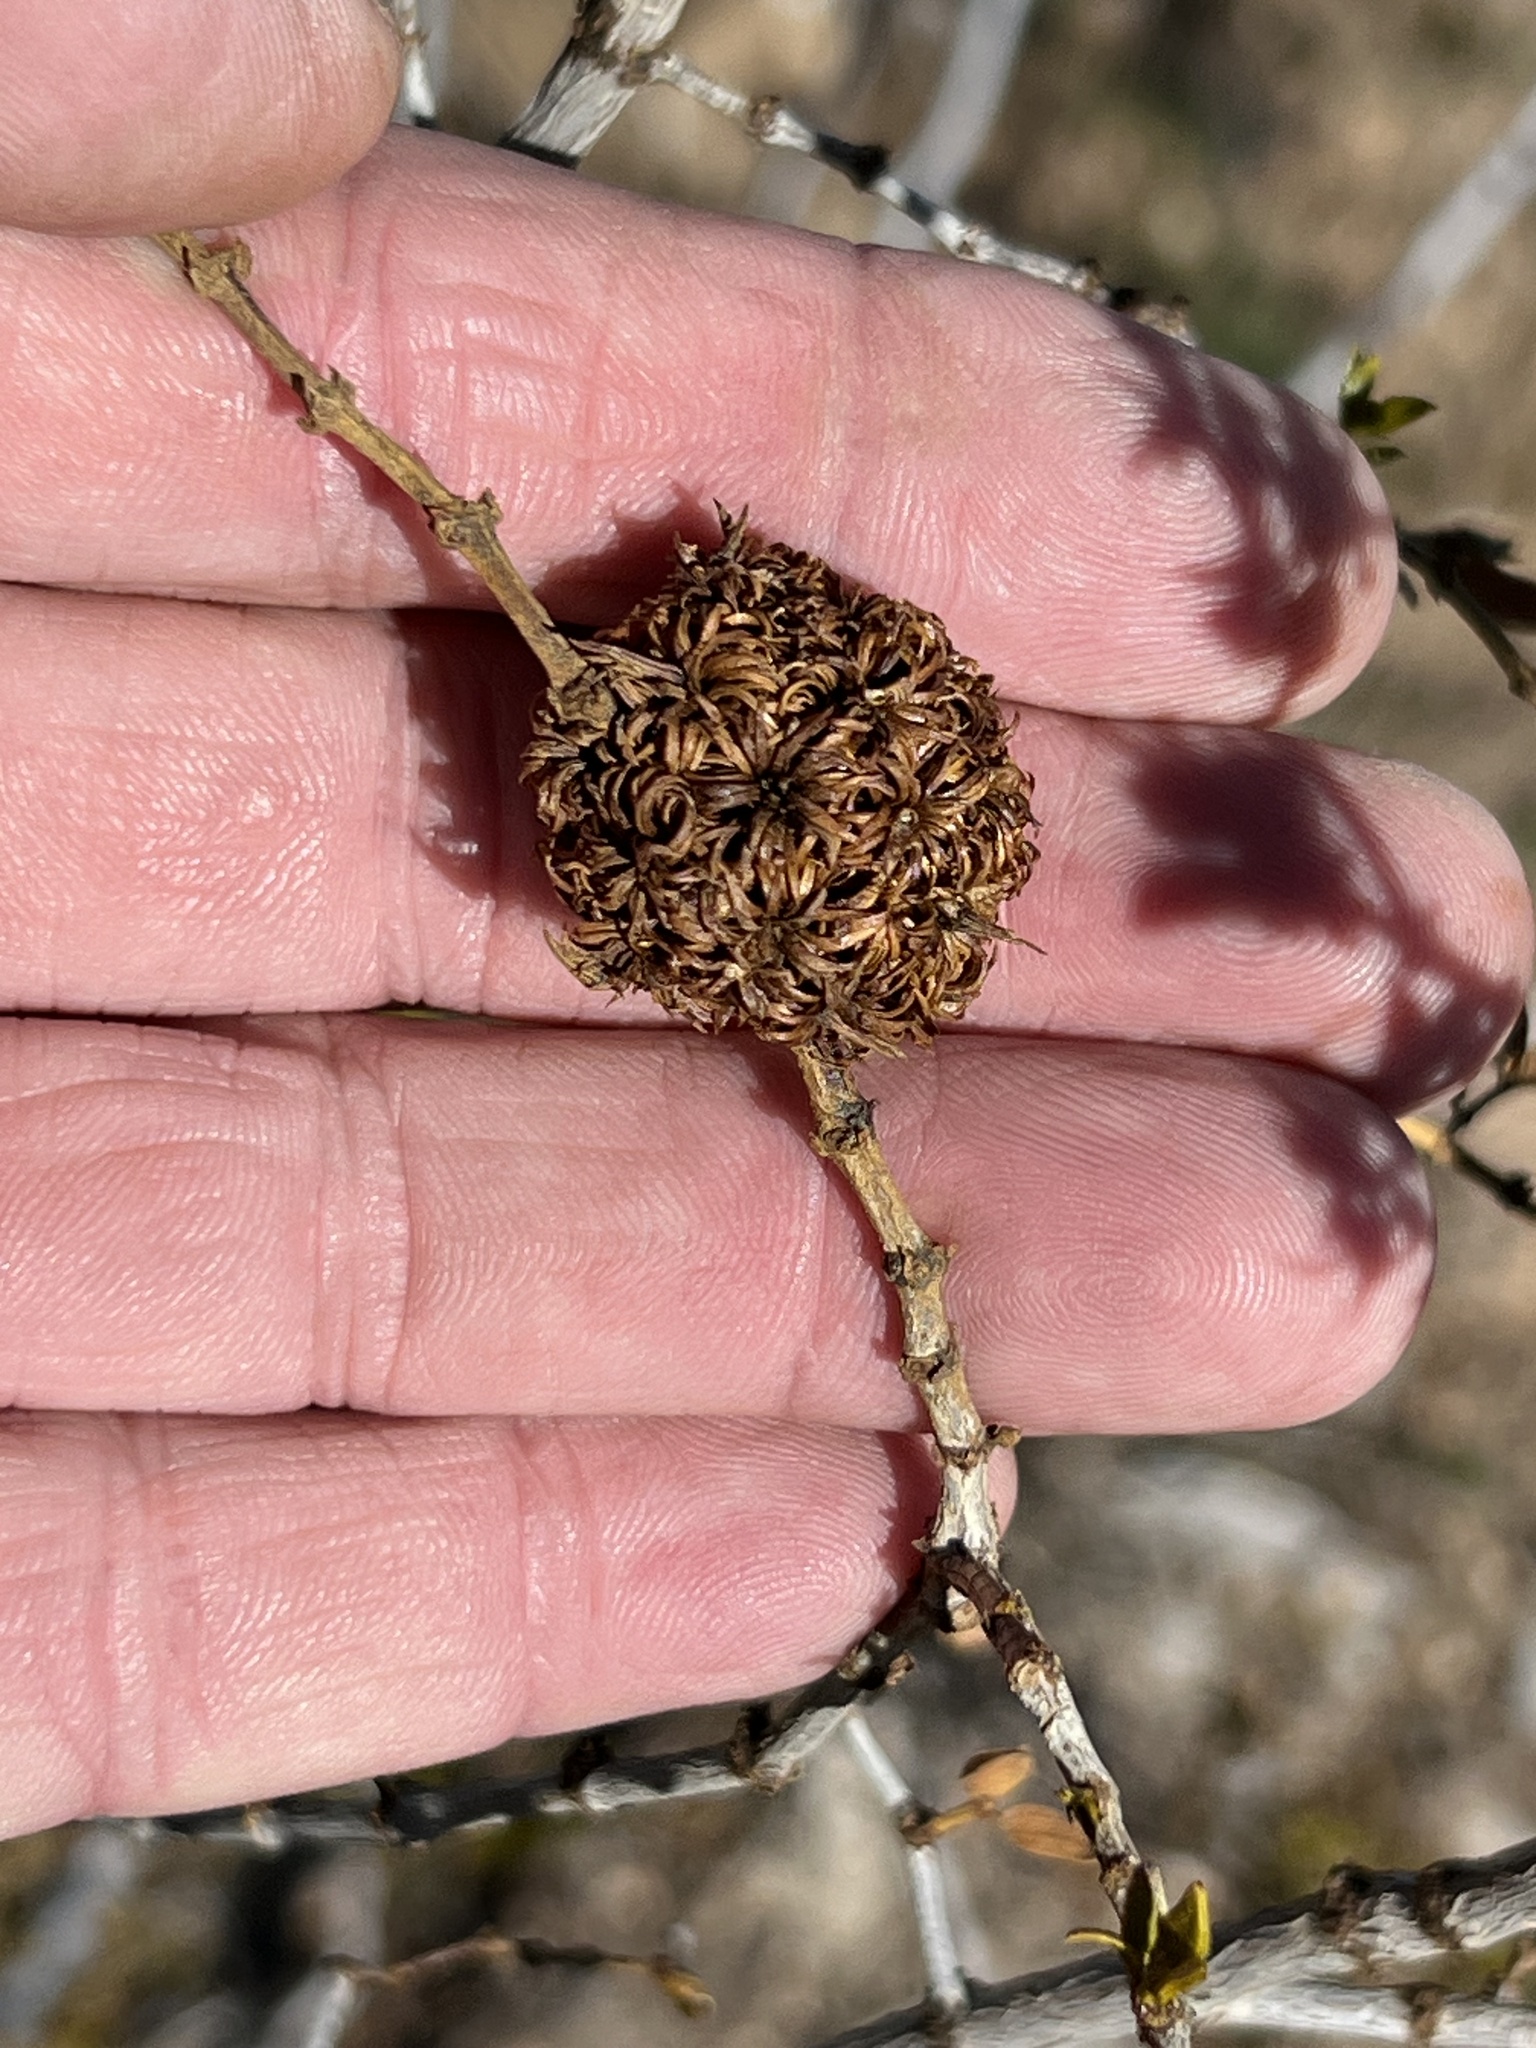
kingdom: Animalia
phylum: Arthropoda
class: Insecta
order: Diptera
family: Cecidomyiidae
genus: Asphondylia
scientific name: Asphondylia auripila
